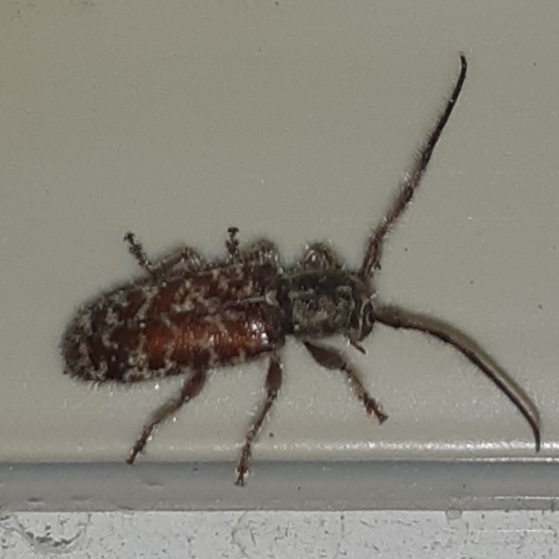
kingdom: Animalia
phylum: Arthropoda
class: Insecta
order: Coleoptera
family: Cerambycidae
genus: Eupogonius
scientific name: Eupogonius tomentosus
